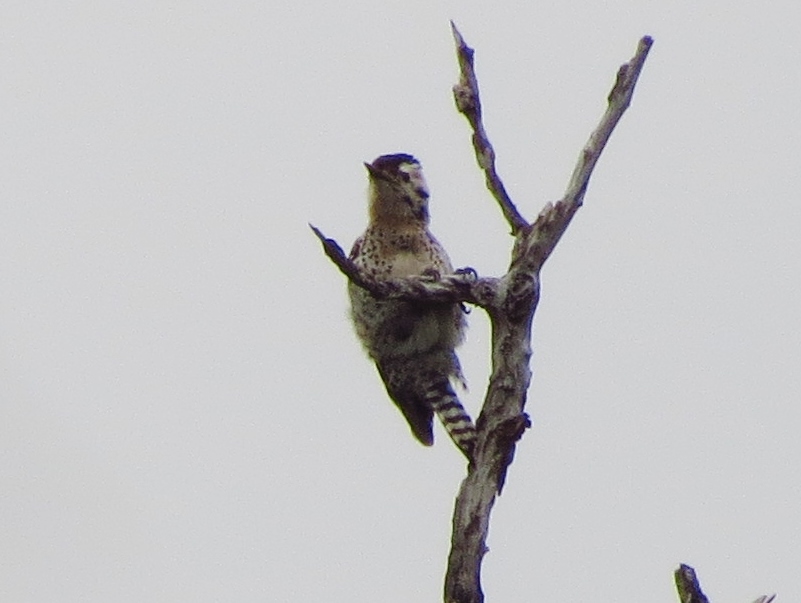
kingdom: Animalia
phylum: Chordata
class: Aves
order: Piciformes
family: Picidae
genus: Dryobates
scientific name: Dryobates scalaris
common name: Ladder-backed woodpecker
